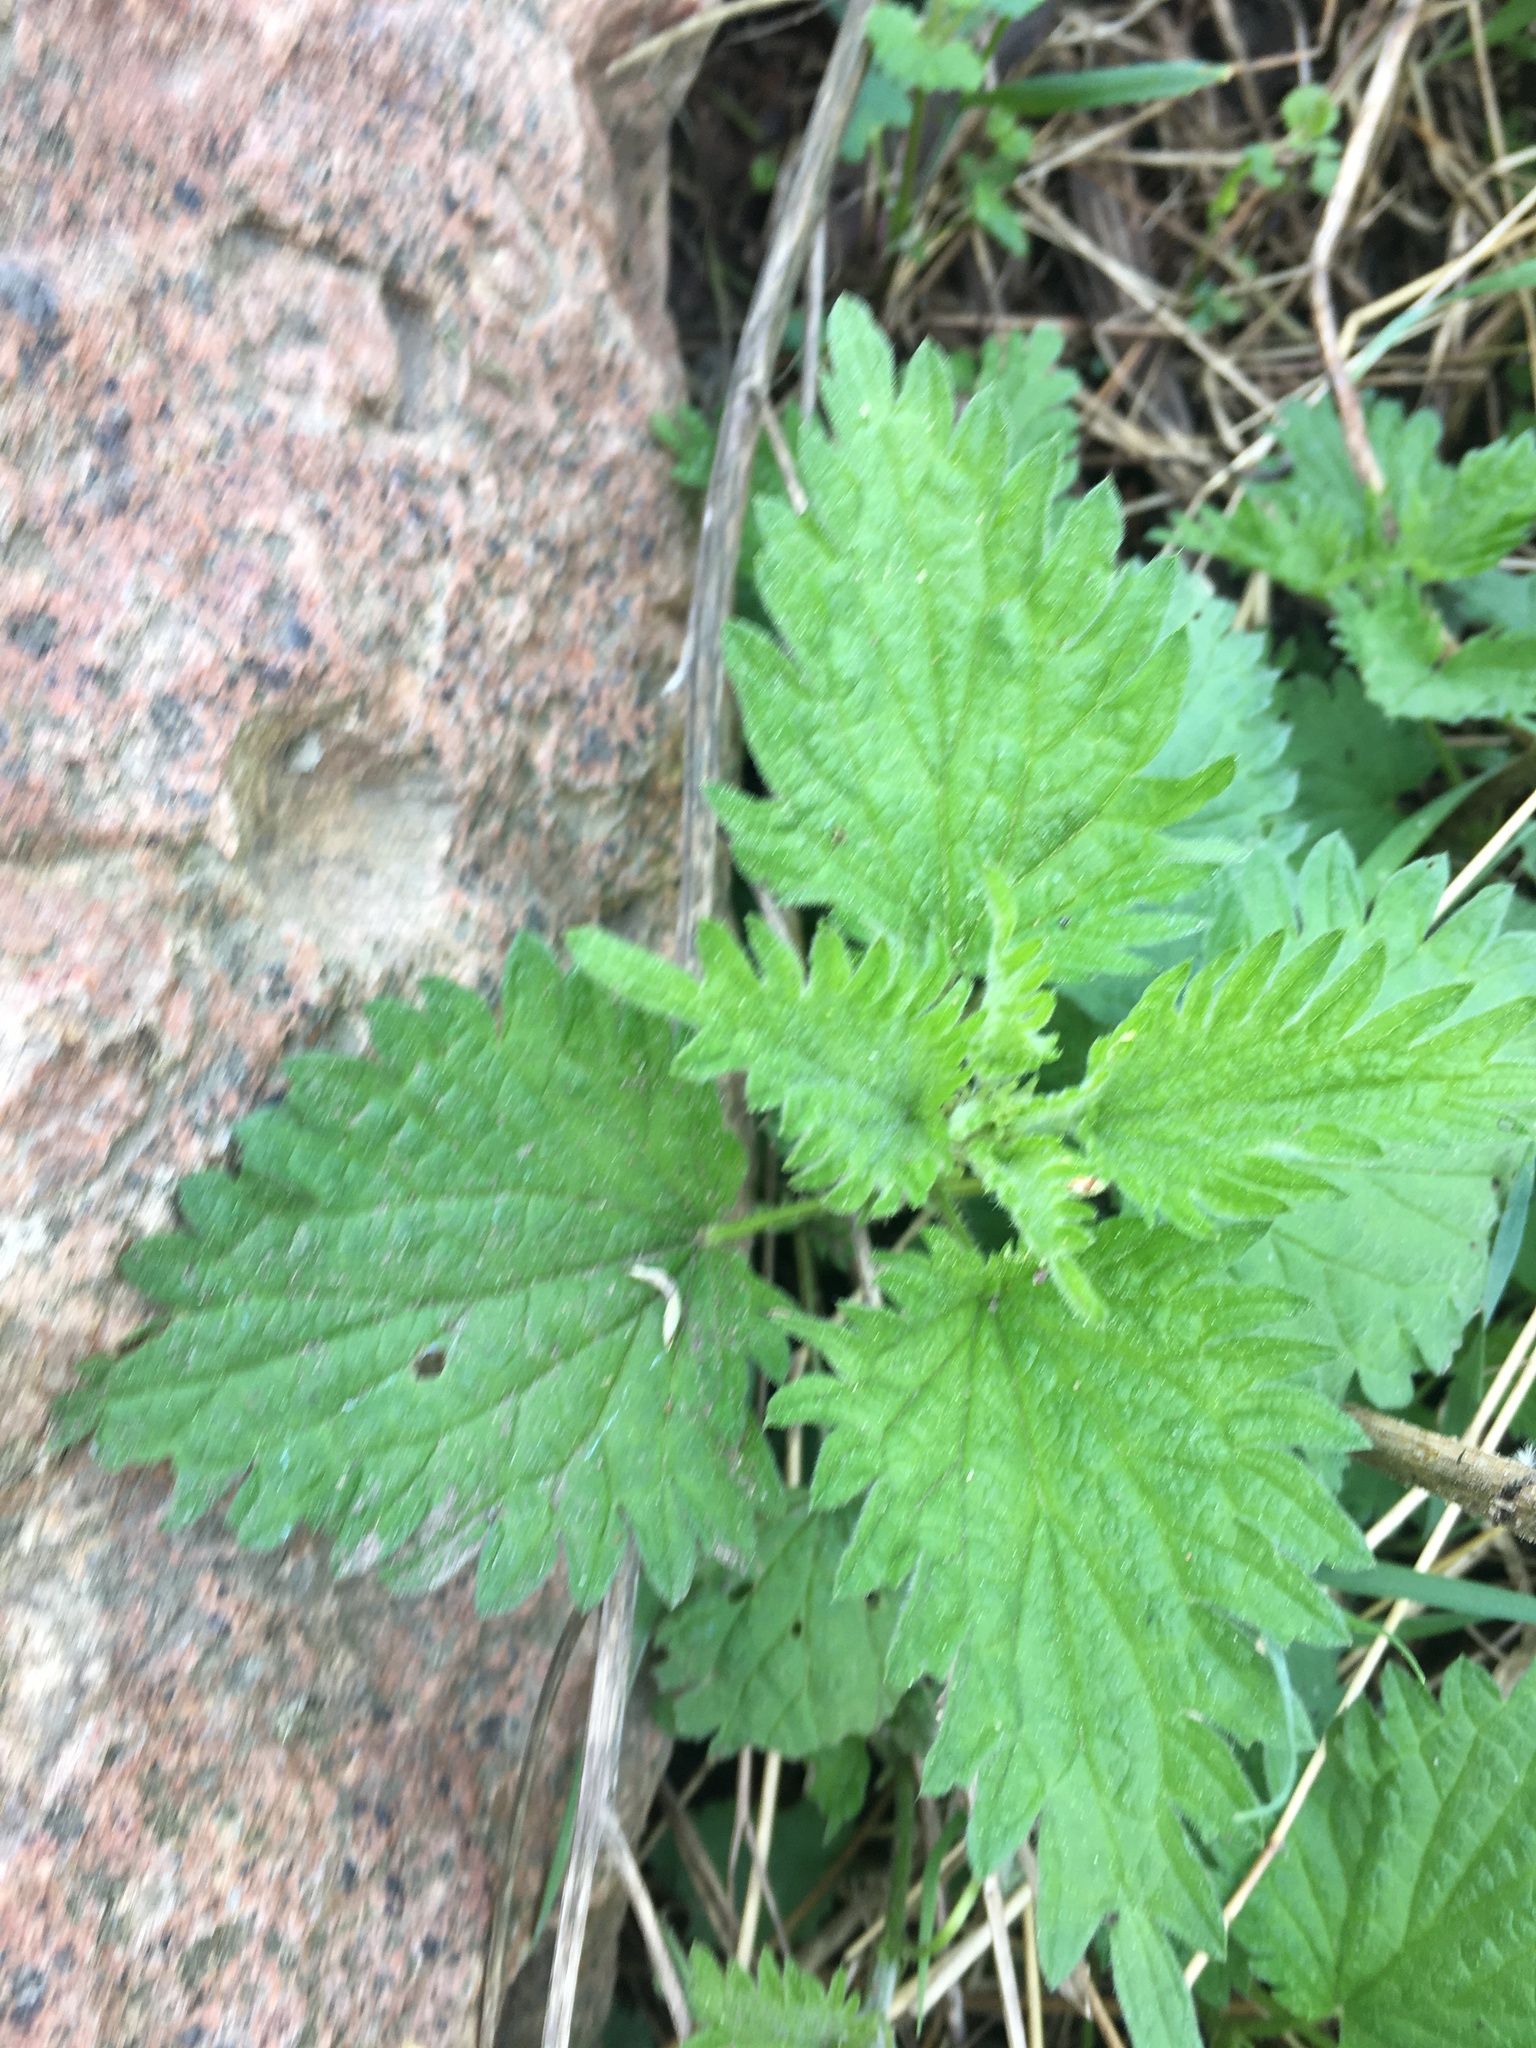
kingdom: Plantae
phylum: Tracheophyta
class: Magnoliopsida
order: Rosales
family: Urticaceae
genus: Urtica
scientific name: Urtica dioica
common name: Common nettle
